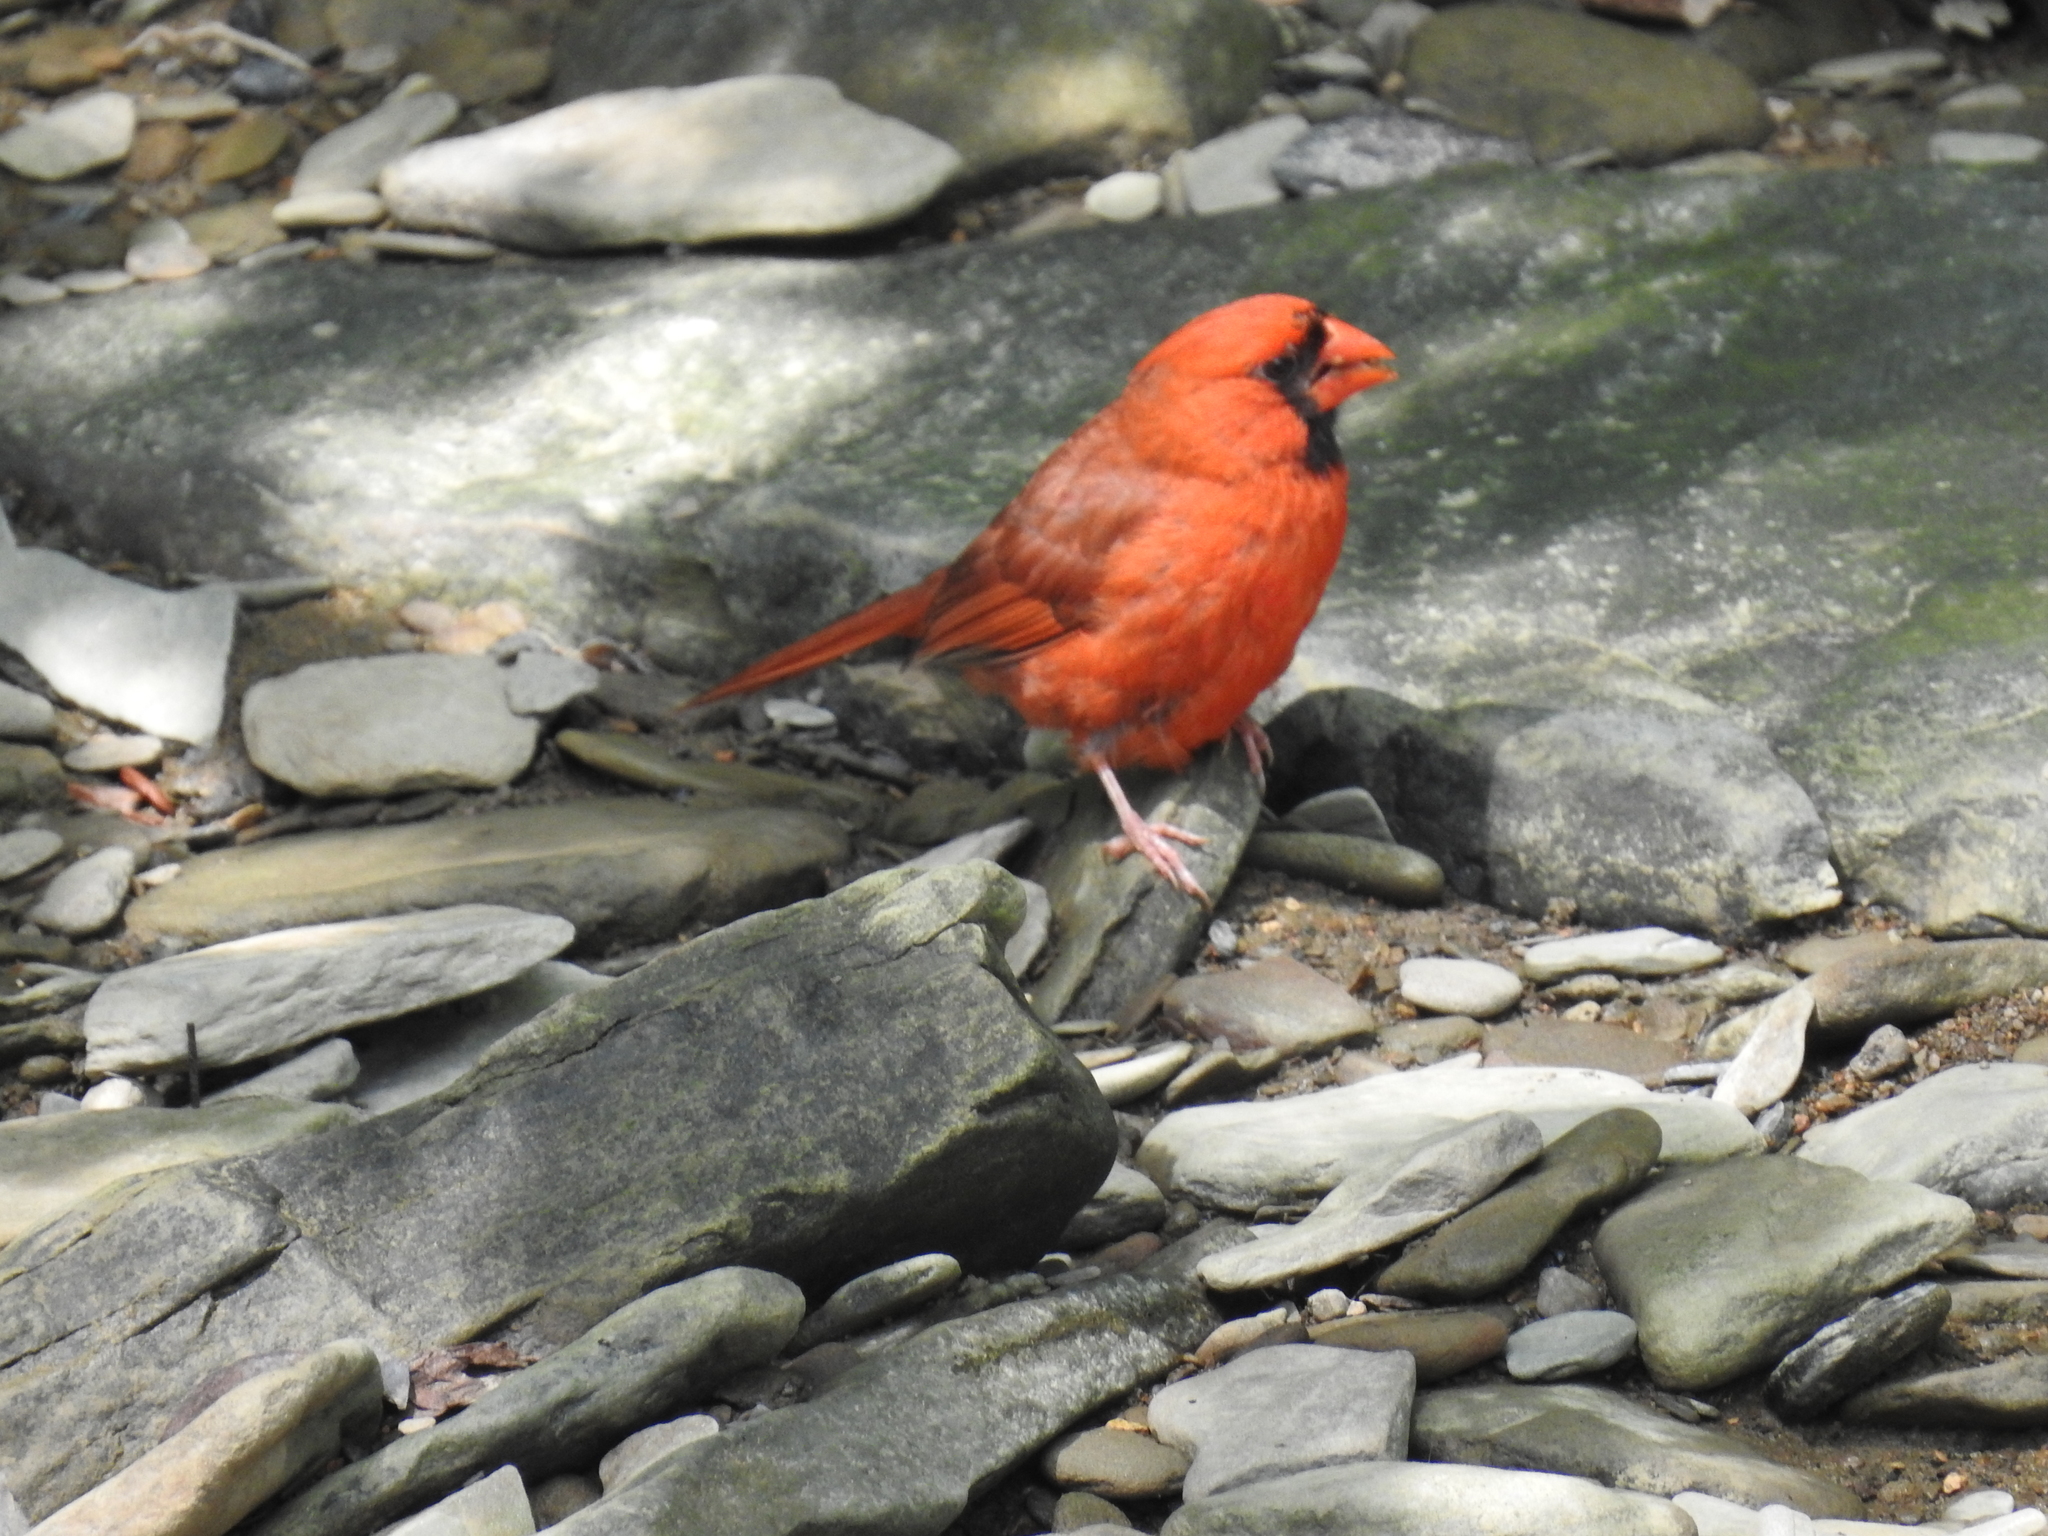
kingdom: Animalia
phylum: Chordata
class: Aves
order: Passeriformes
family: Cardinalidae
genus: Cardinalis
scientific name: Cardinalis cardinalis
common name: Northern cardinal
